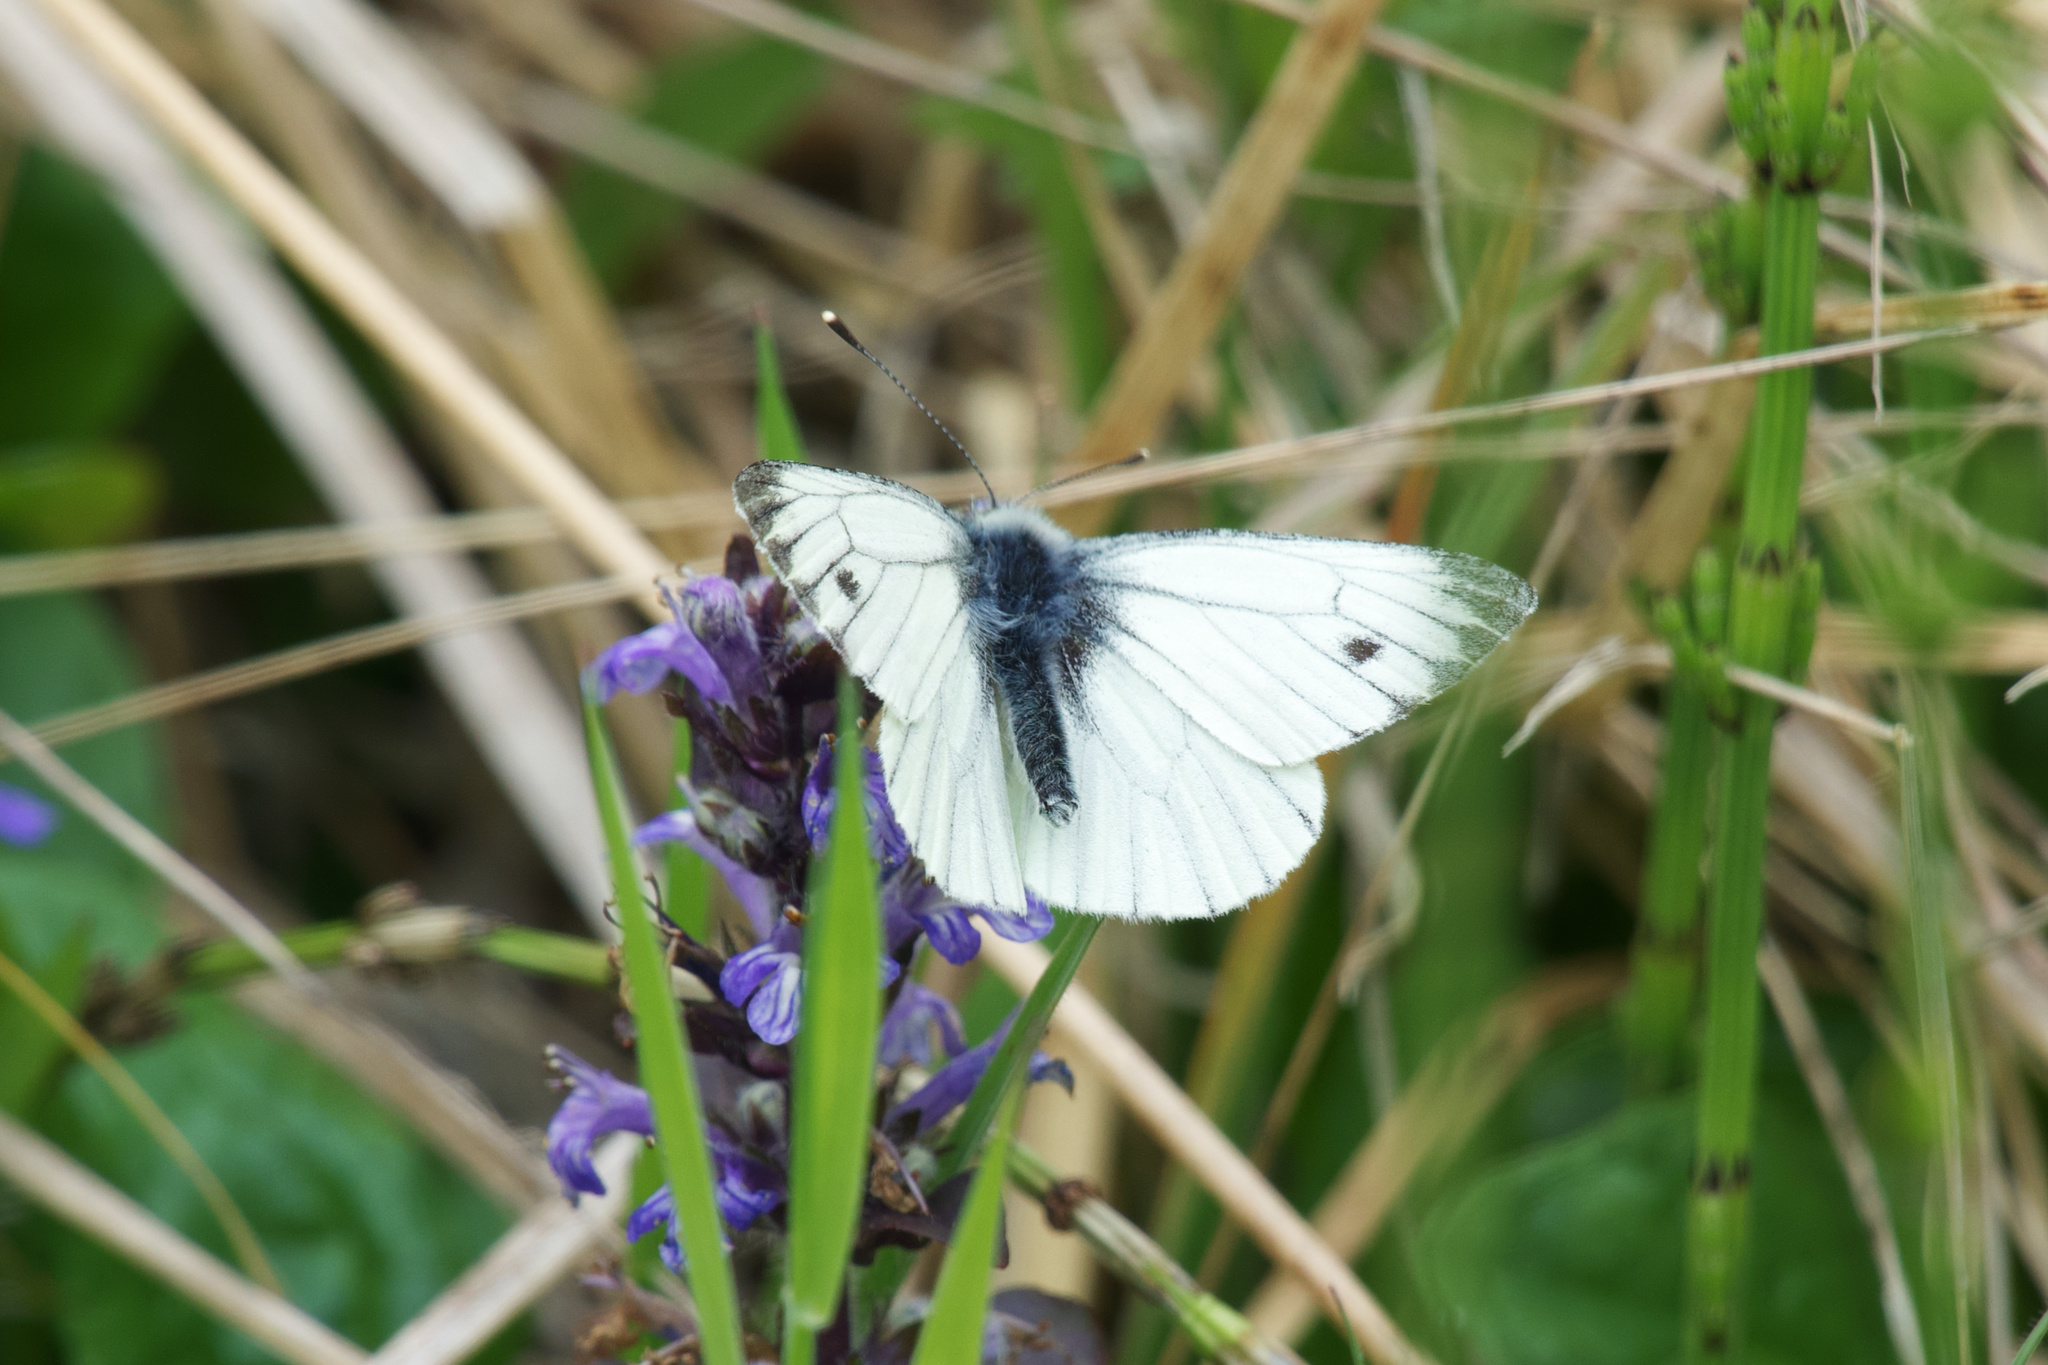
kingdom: Animalia
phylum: Arthropoda
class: Insecta
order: Lepidoptera
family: Pieridae
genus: Pieris
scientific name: Pieris napi
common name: Green-veined white
